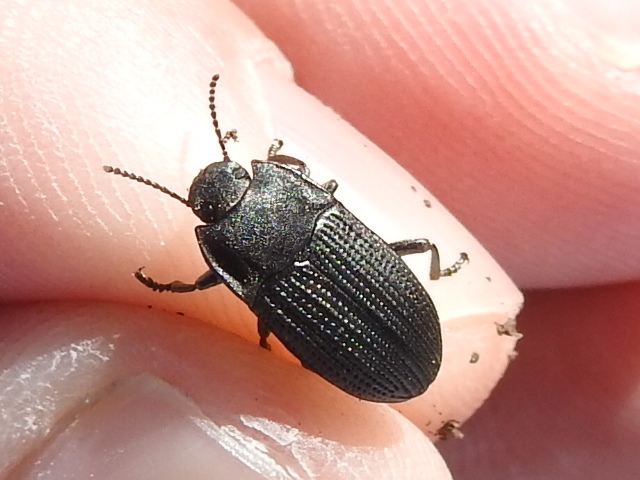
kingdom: Animalia
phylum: Arthropoda
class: Insecta
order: Coleoptera
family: Tenebrionidae
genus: Asiopus
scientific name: Asiopus
